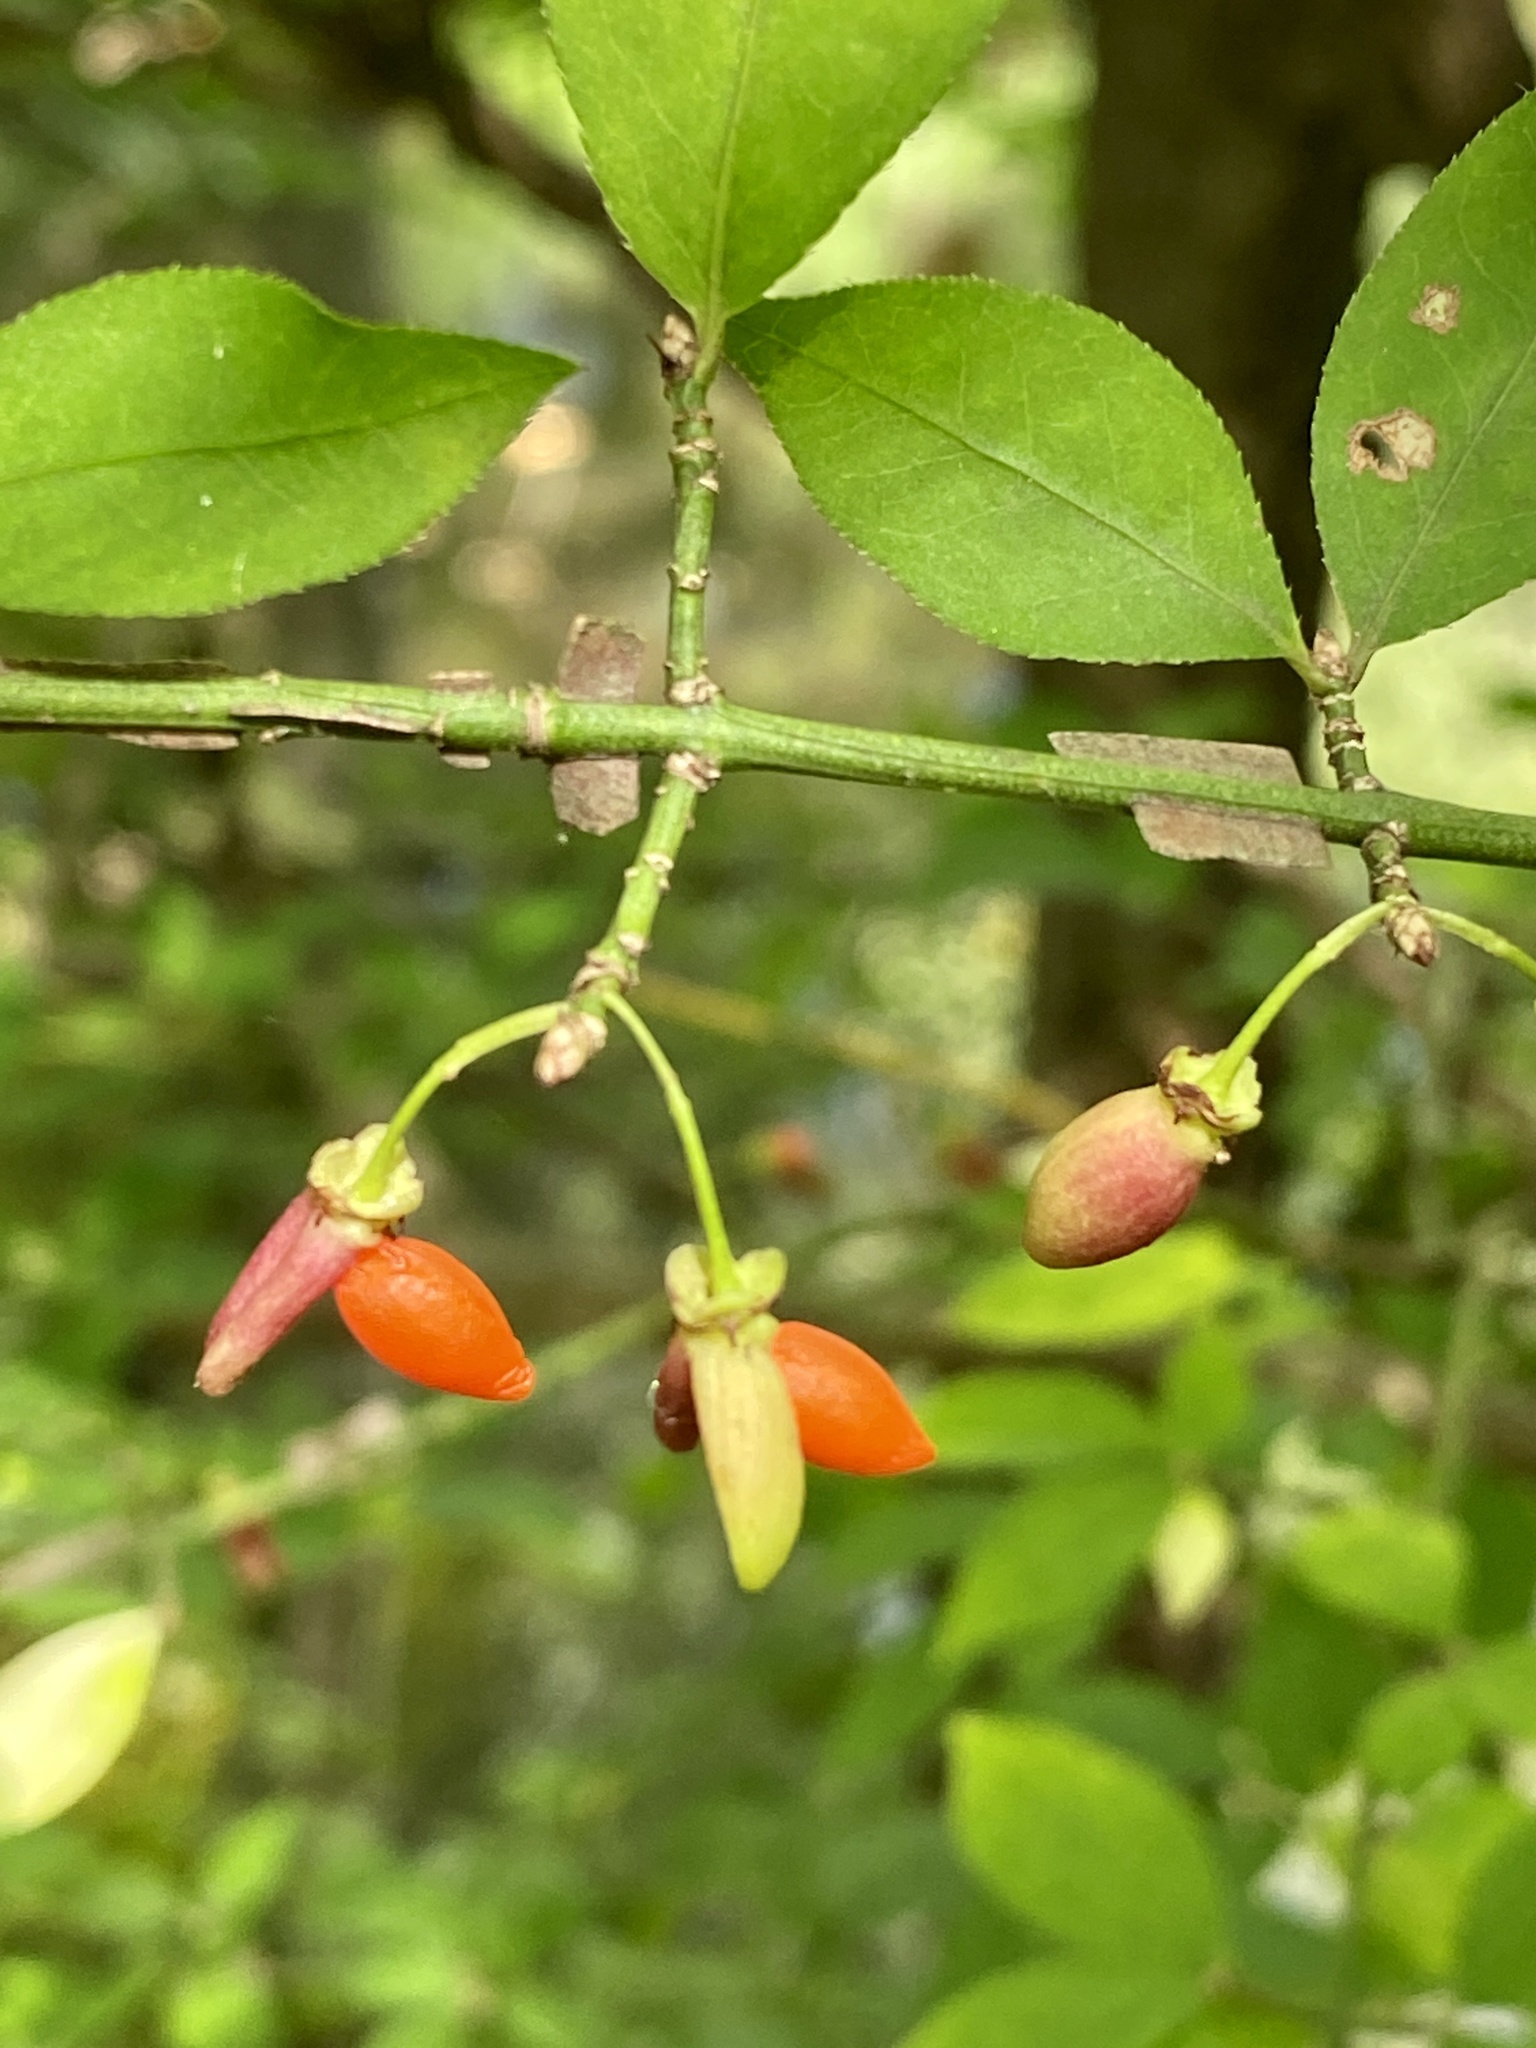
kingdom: Plantae
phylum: Tracheophyta
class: Magnoliopsida
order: Celastrales
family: Celastraceae
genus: Euonymus
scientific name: Euonymus alatus
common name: Winged euonymus
